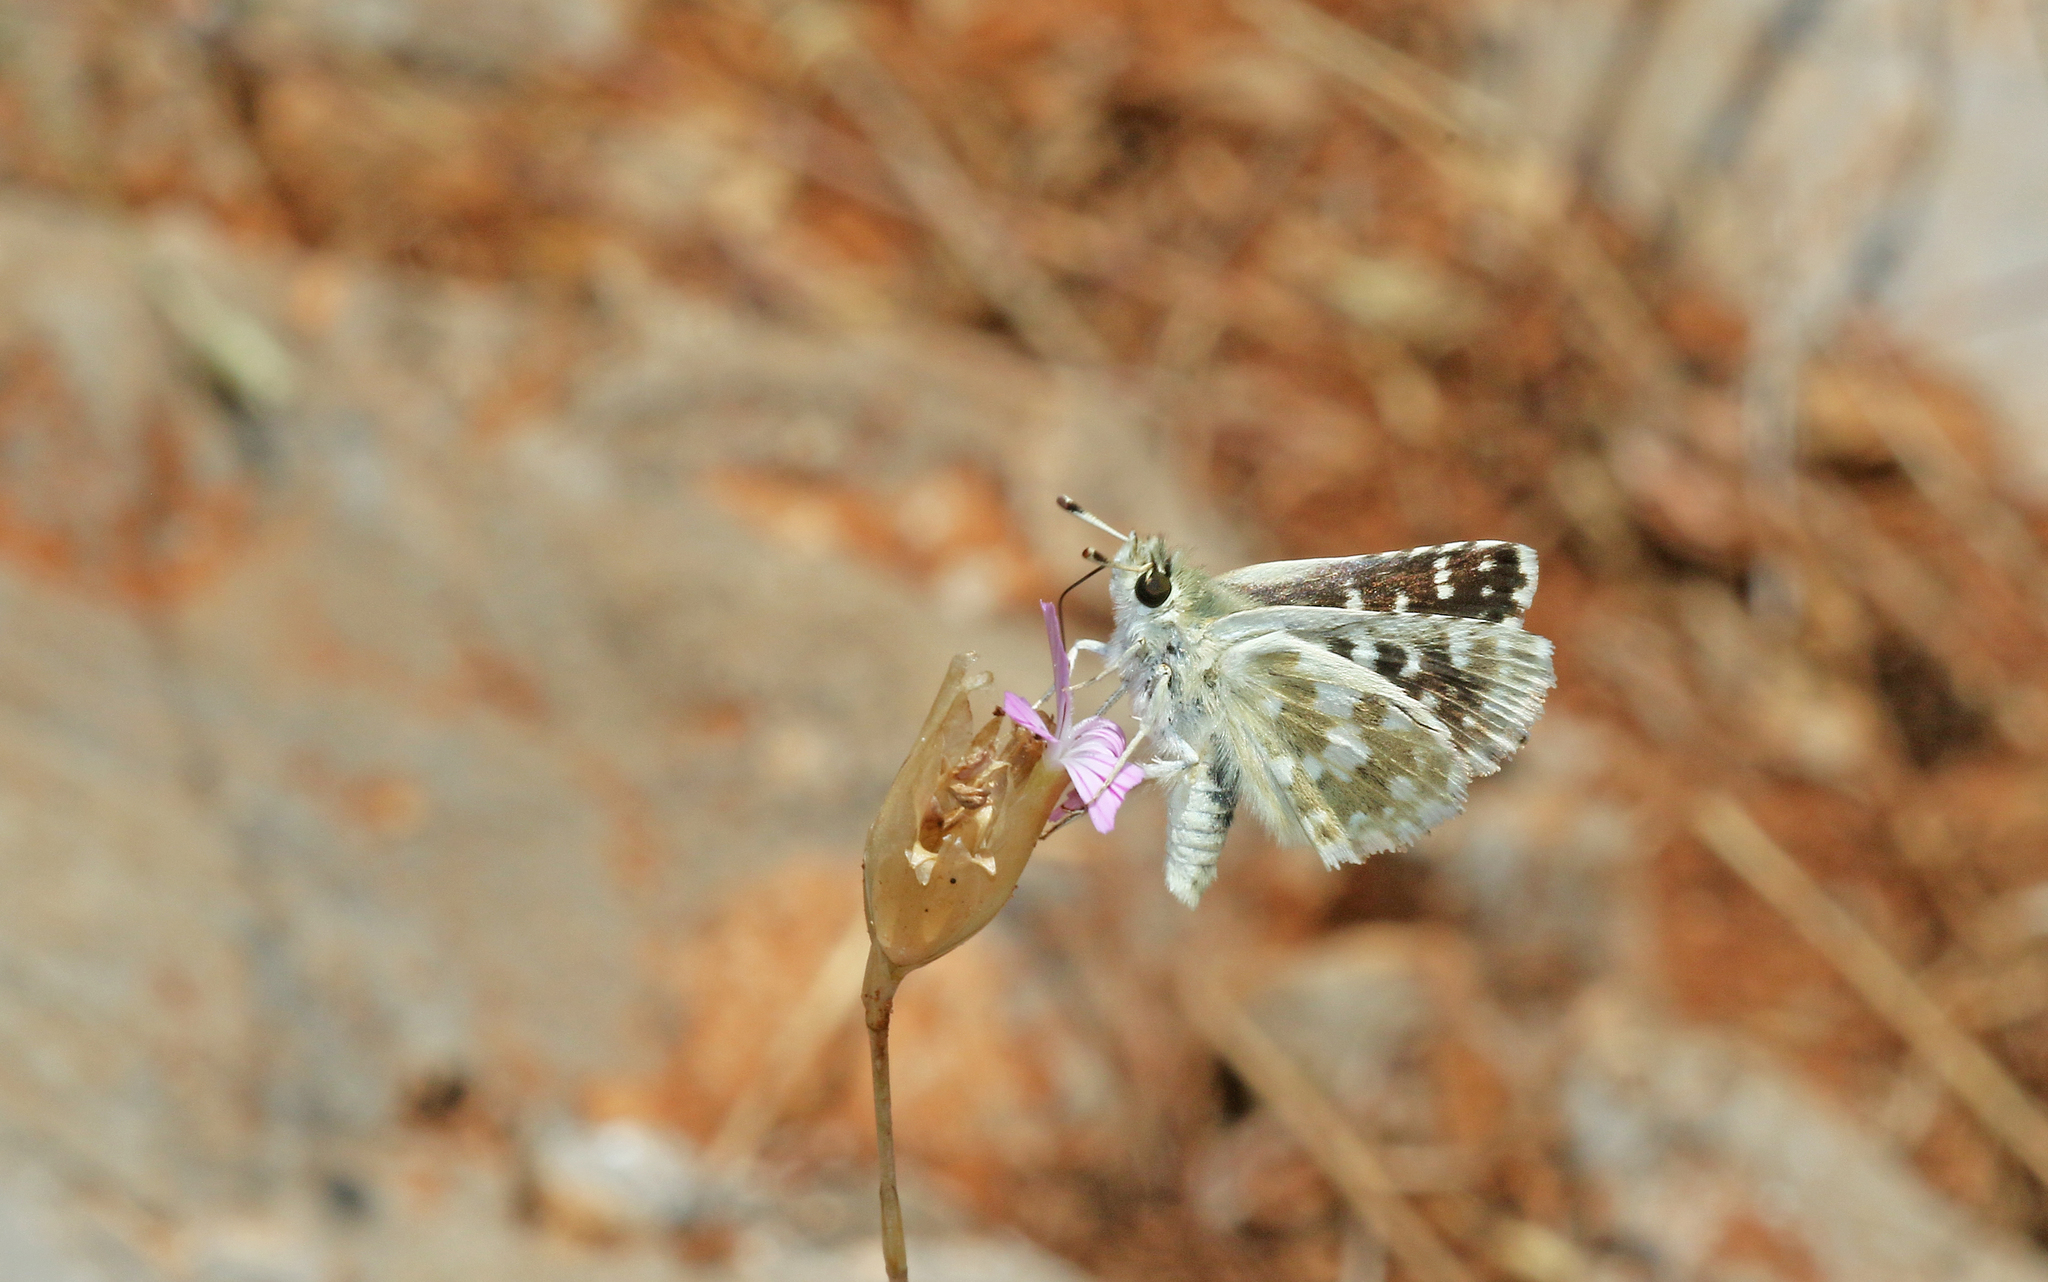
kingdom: Animalia
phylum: Arthropoda
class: Insecta
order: Lepidoptera
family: Hesperiidae
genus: Spialia
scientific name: Spialia phlomidis
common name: Persian skipper
